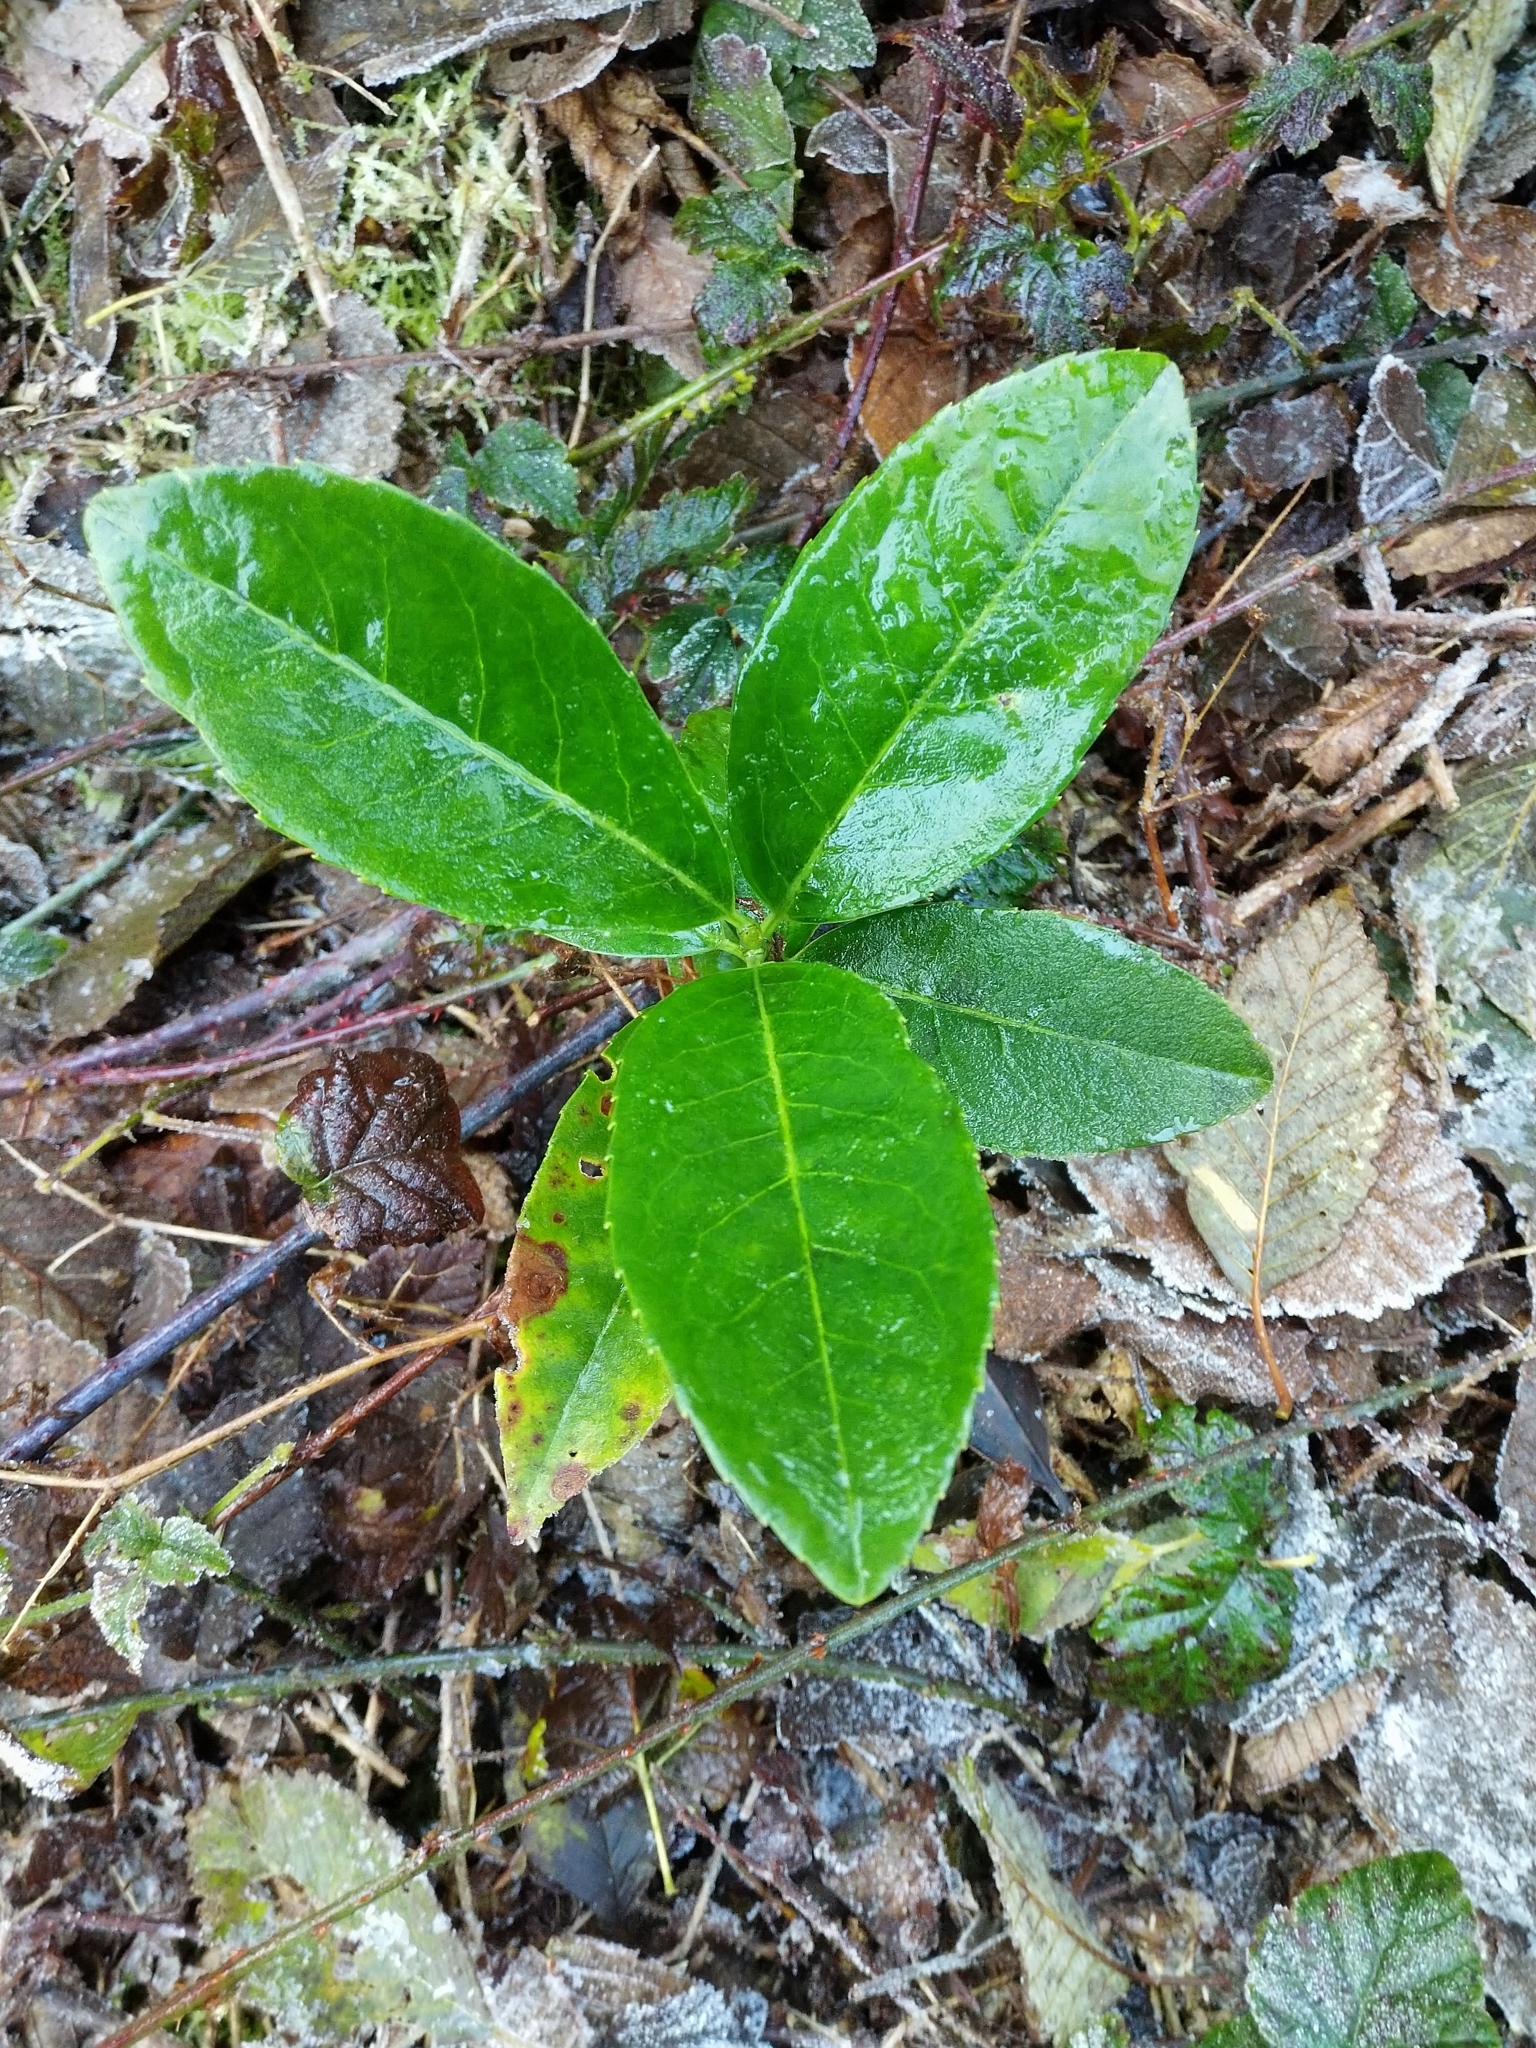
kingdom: Plantae
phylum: Tracheophyta
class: Magnoliopsida
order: Rosales
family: Rosaceae
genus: Prunus
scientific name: Prunus laurocerasus
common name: Cherry laurel
